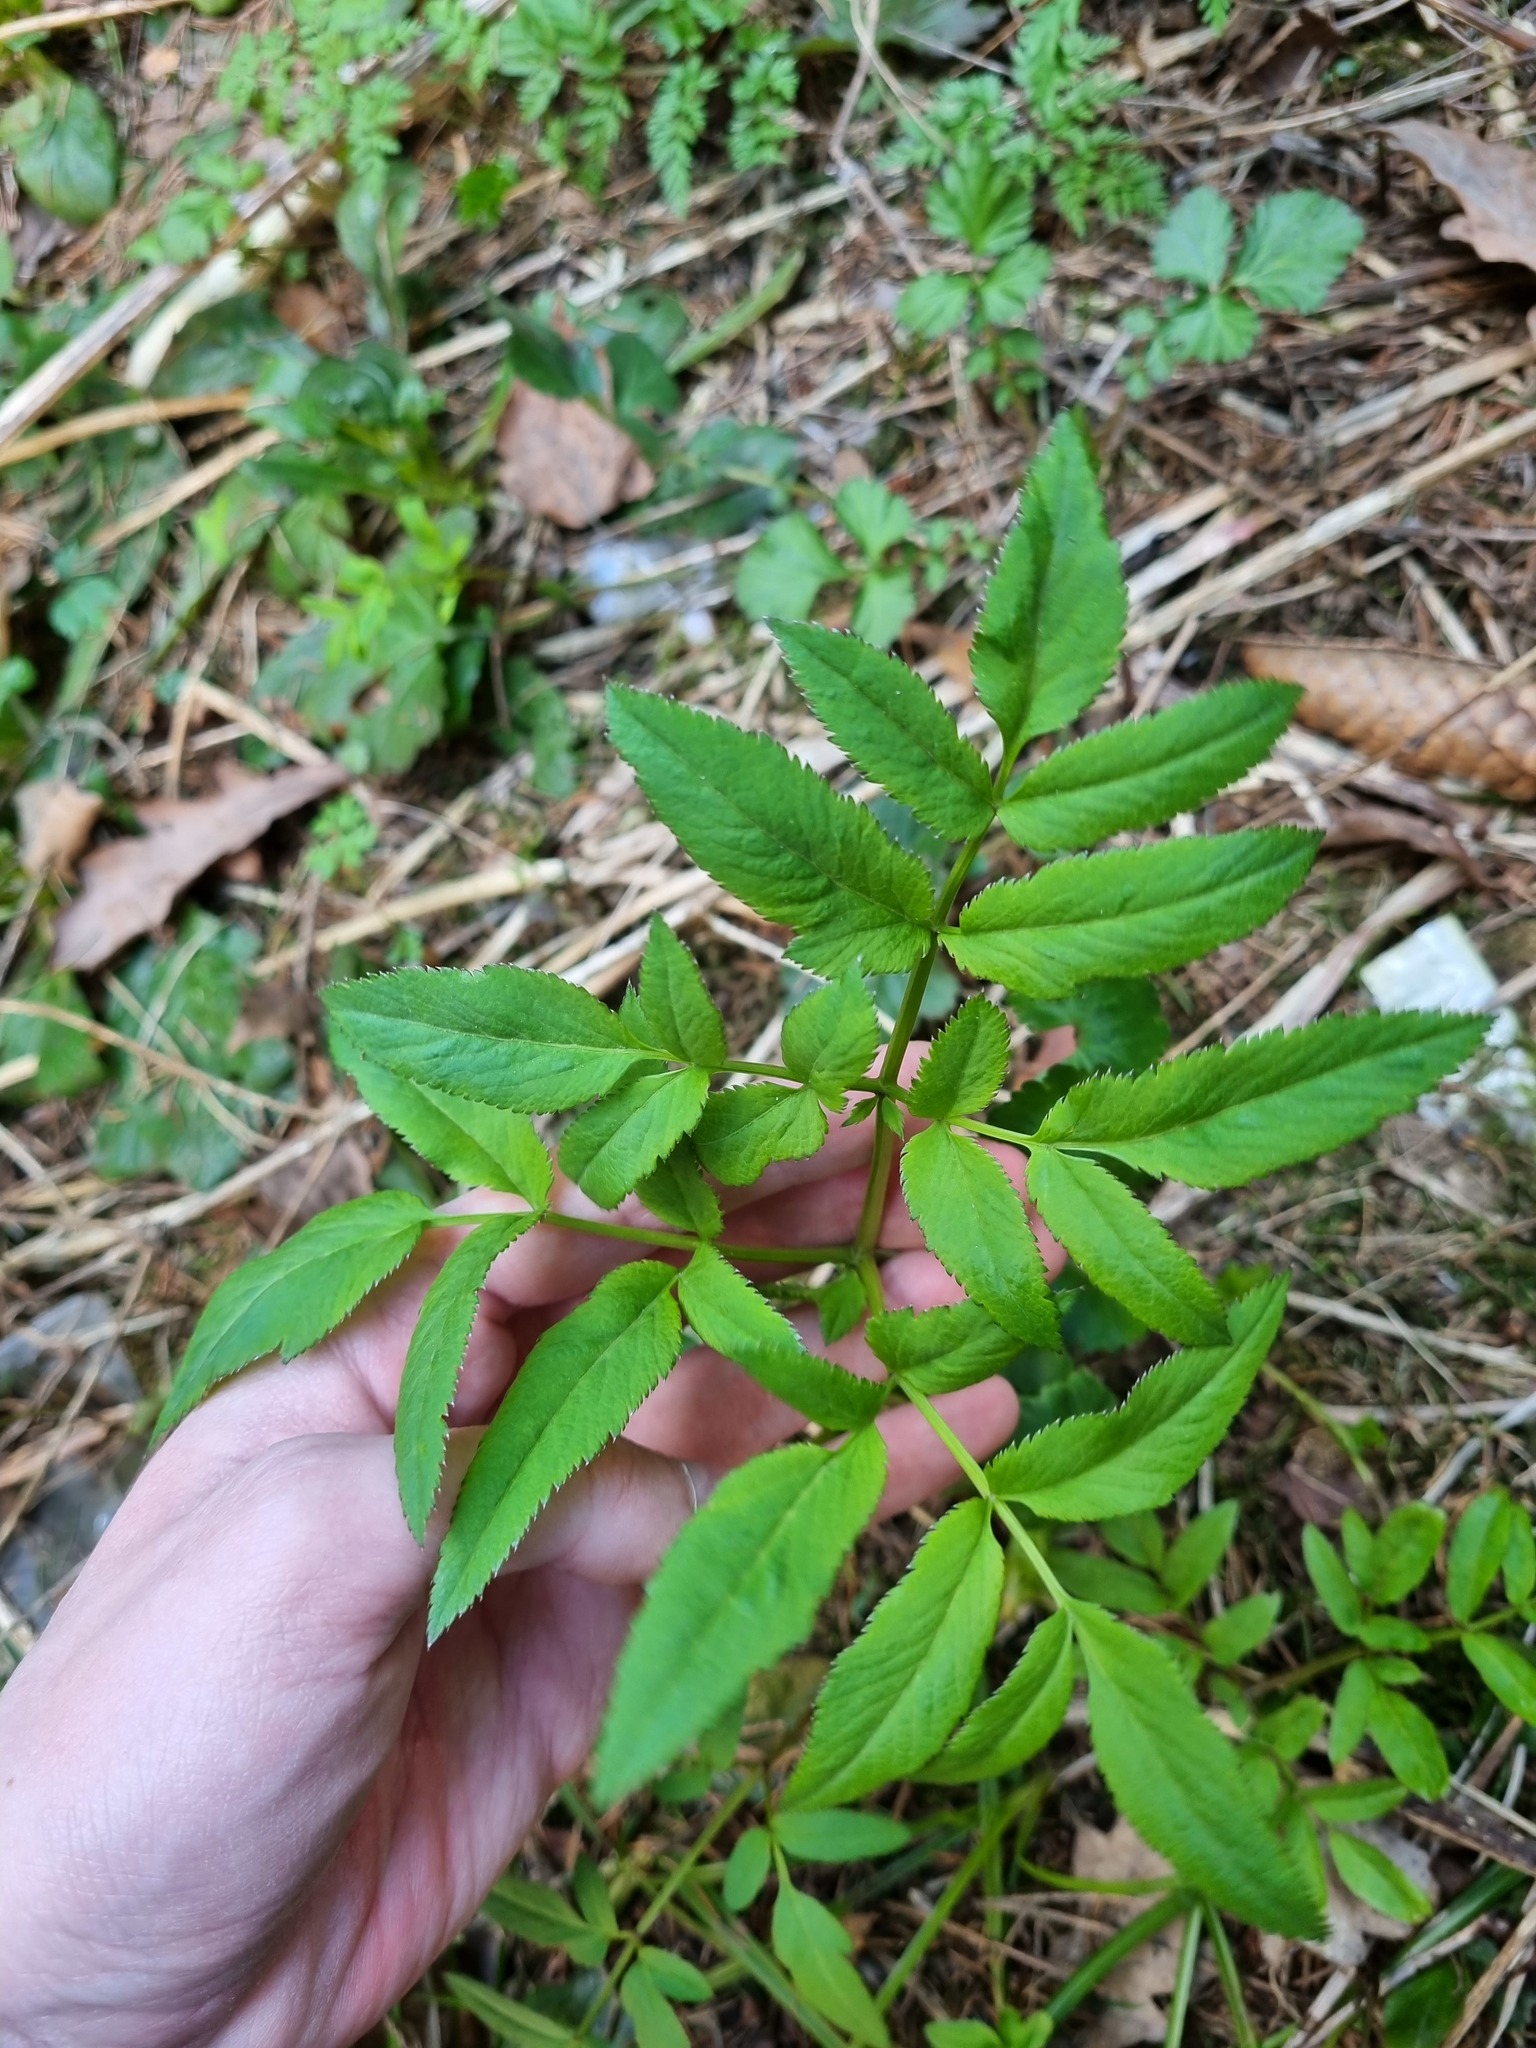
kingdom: Plantae
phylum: Tracheophyta
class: Magnoliopsida
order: Apiales
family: Apiaceae
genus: Angelica
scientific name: Angelica sylvestris
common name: Wild angelica
